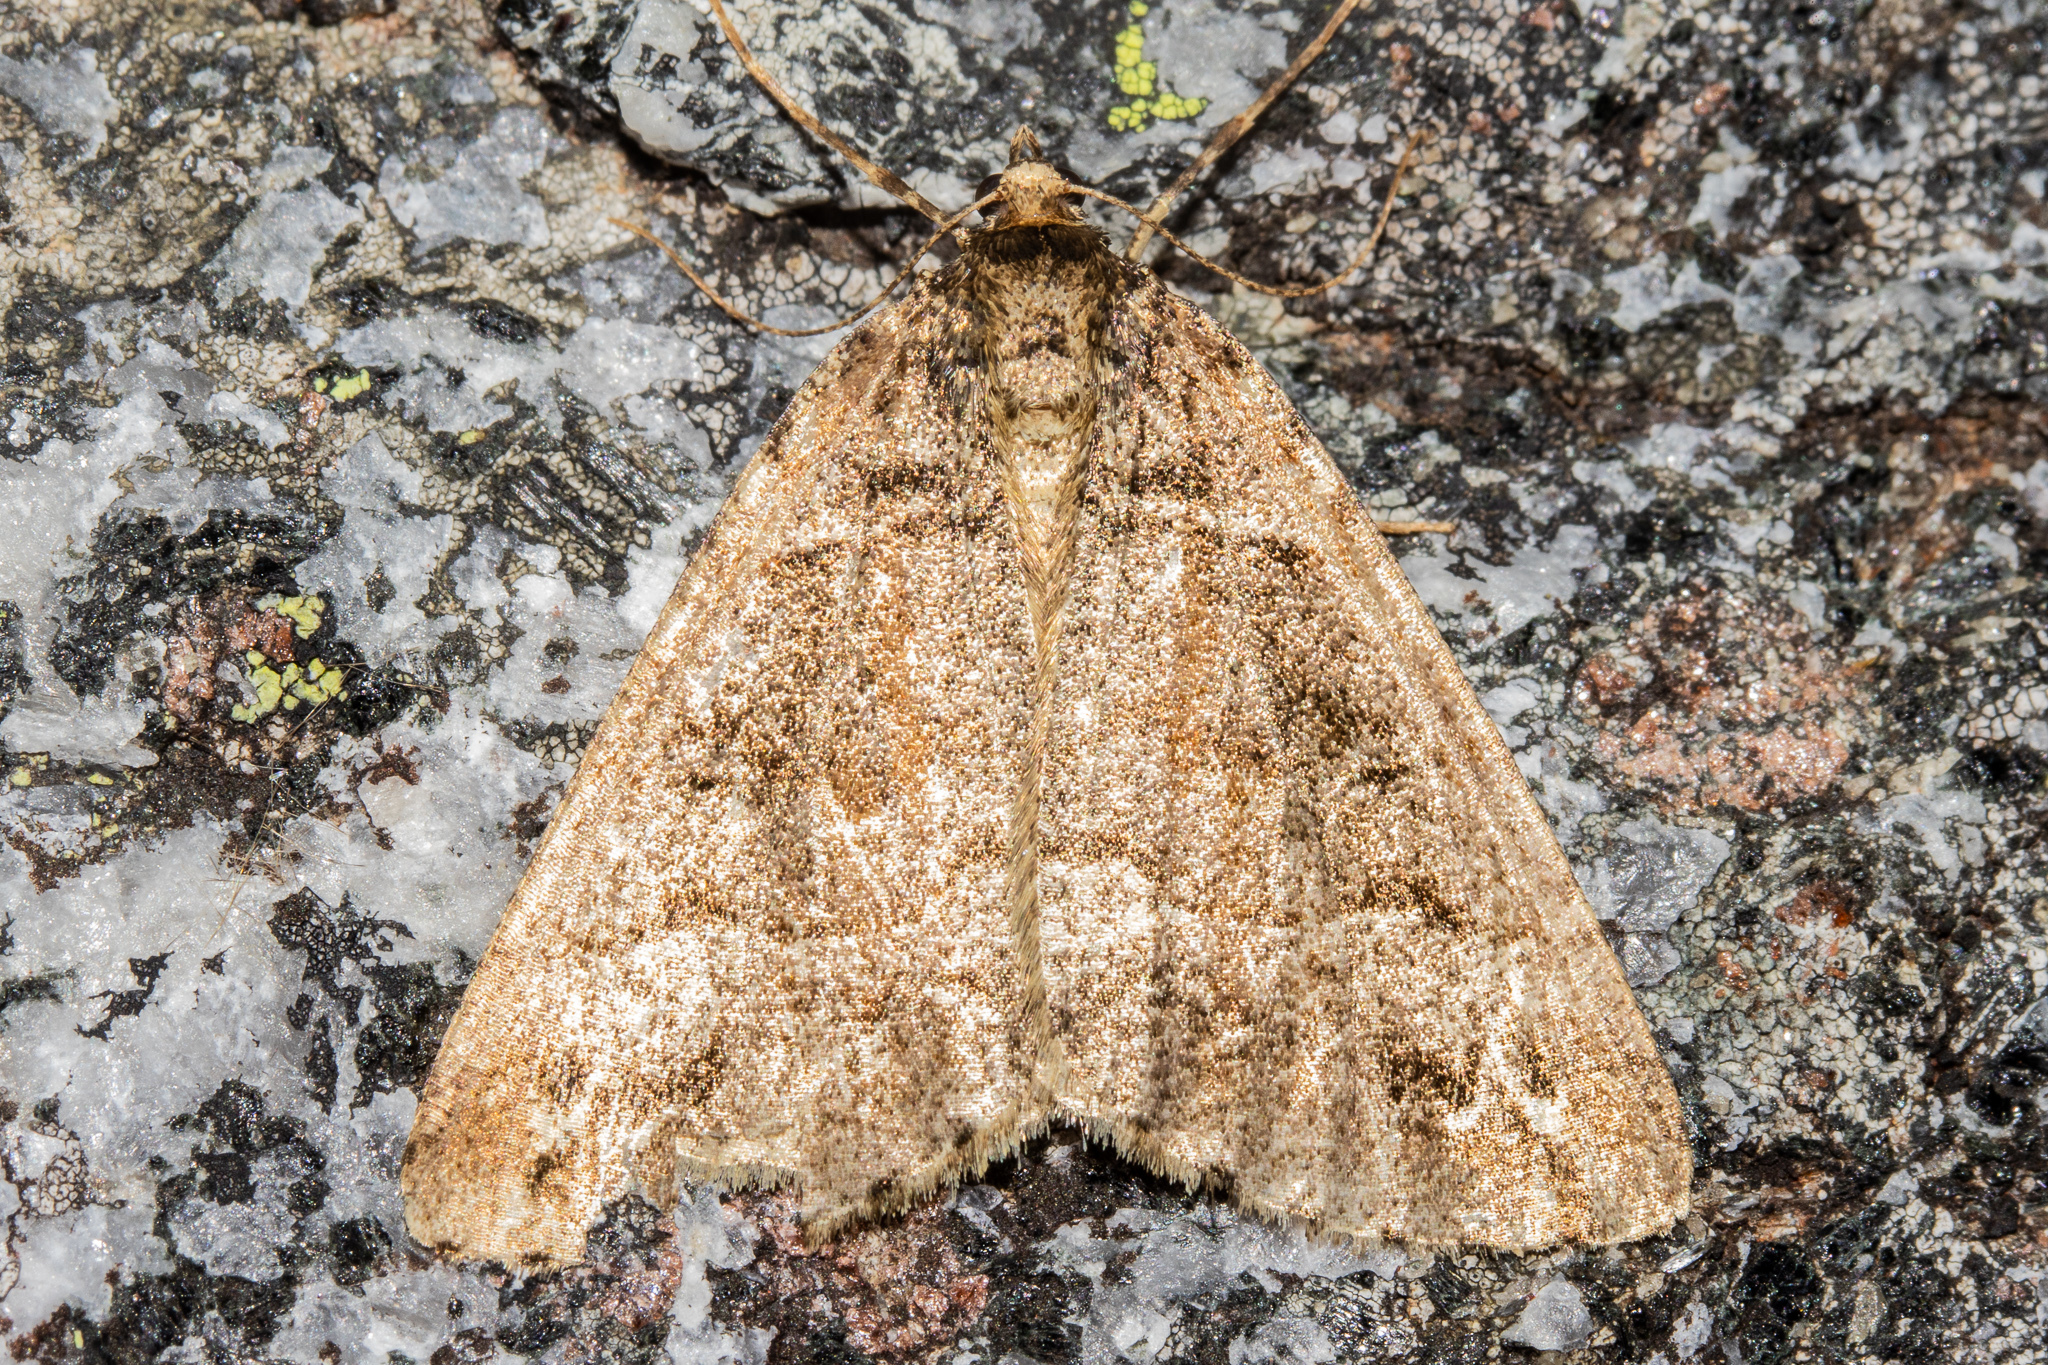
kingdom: Animalia
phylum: Arthropoda
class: Insecta
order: Lepidoptera
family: Geometridae
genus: Pseudocoremia
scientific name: Pseudocoremia colpogramma
